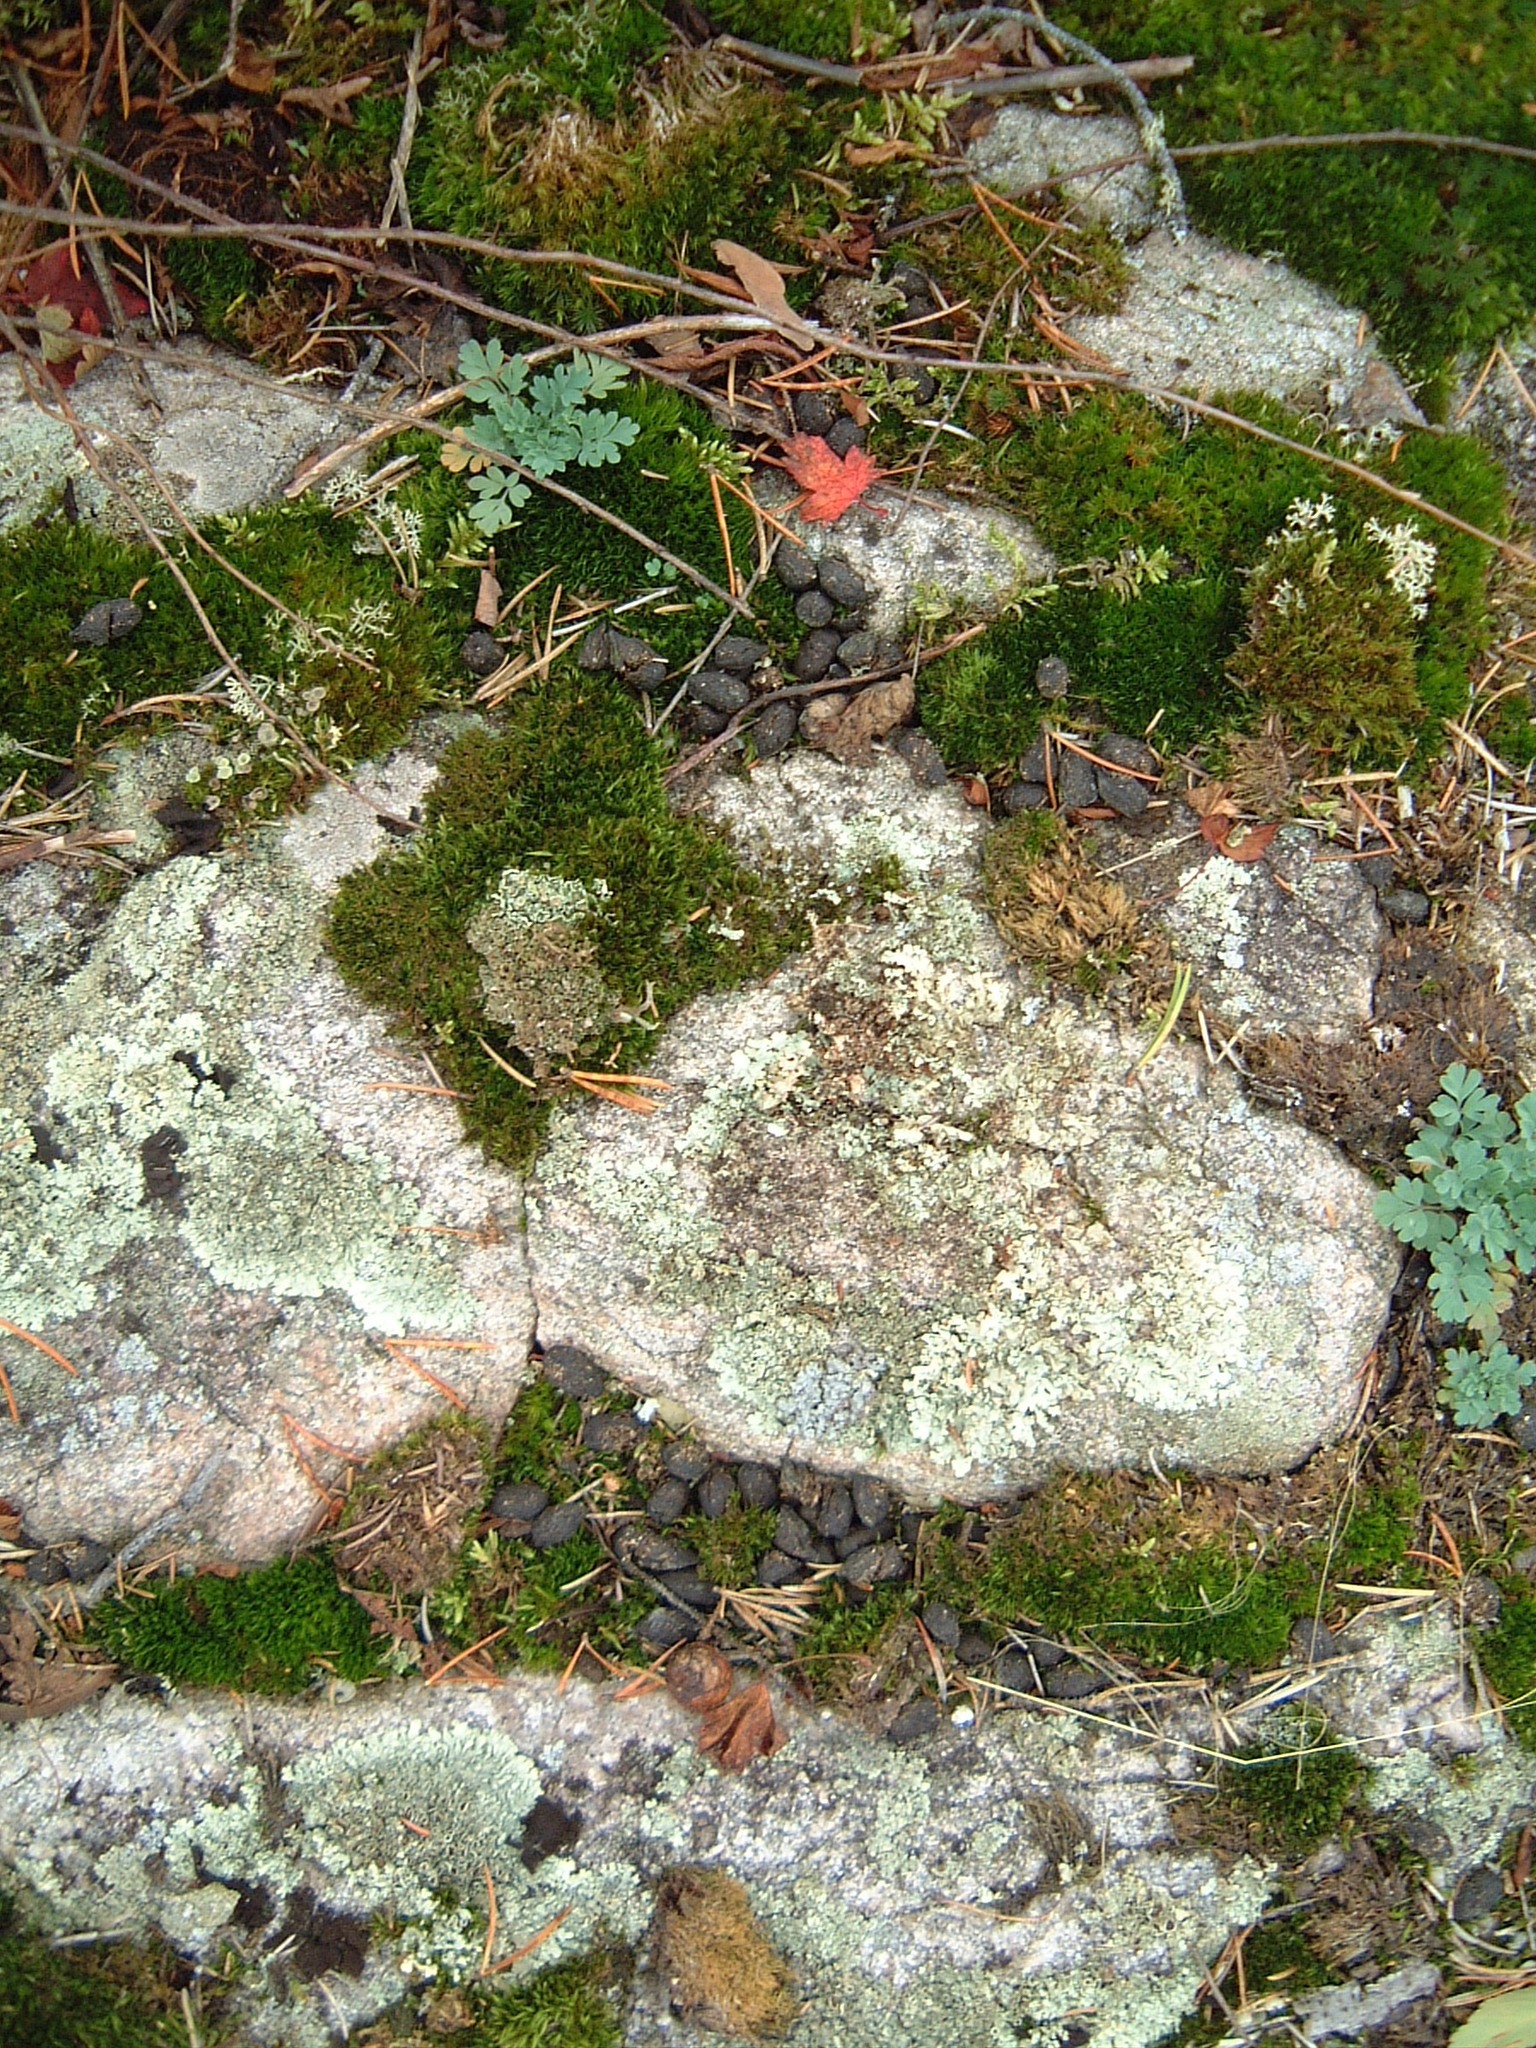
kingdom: Animalia
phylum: Chordata
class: Mammalia
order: Artiodactyla
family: Cervidae
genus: Rangifer
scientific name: Rangifer tarandus
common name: Reindeer
